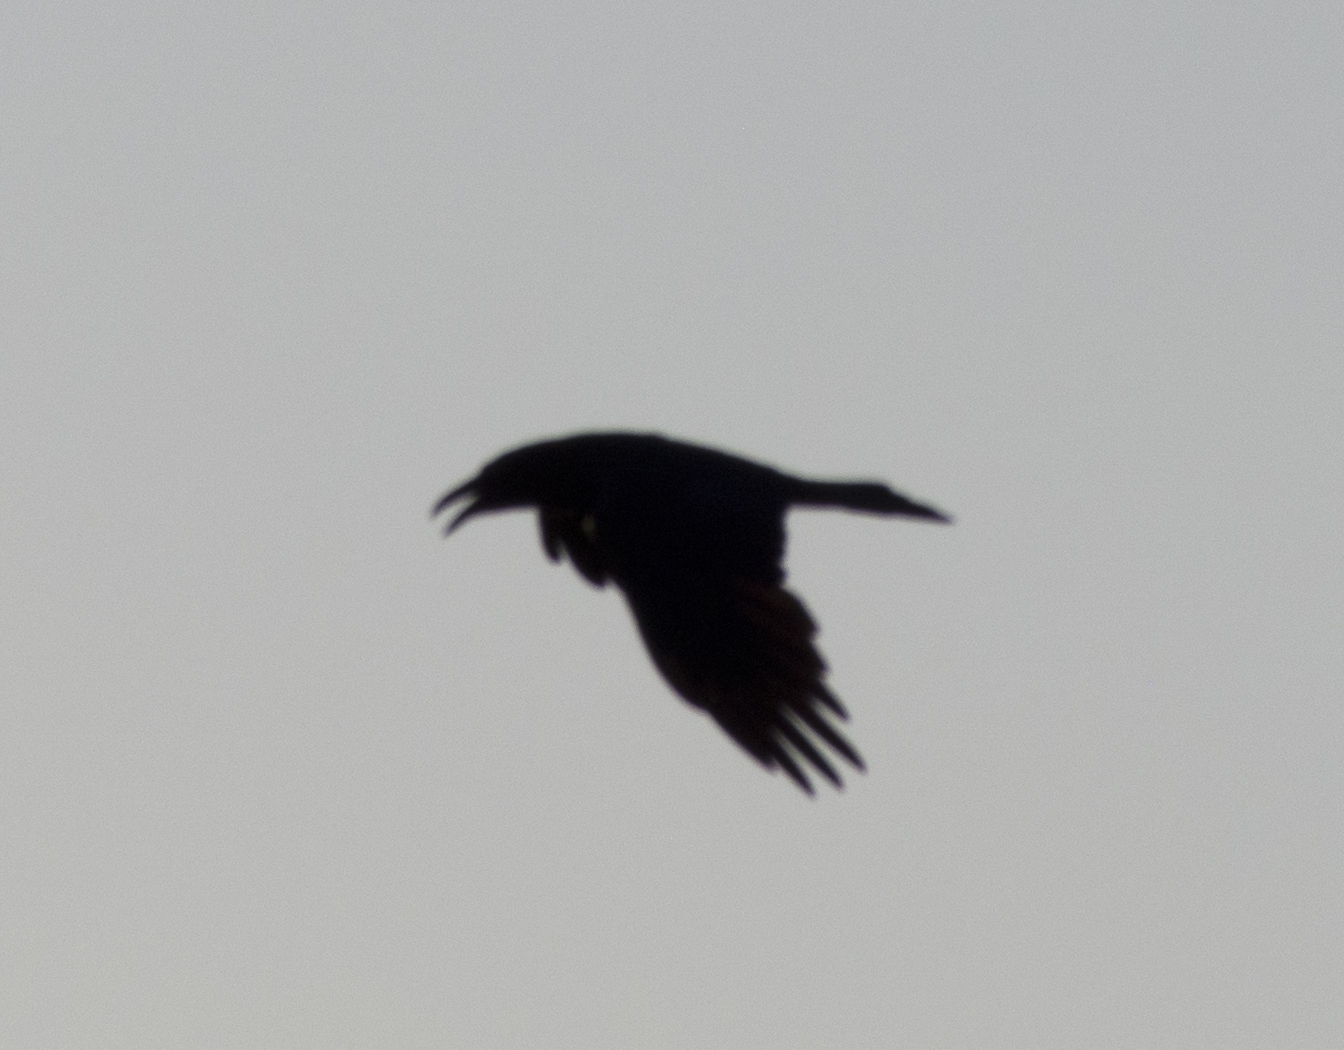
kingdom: Animalia
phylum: Chordata
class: Aves
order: Passeriformes
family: Corvidae
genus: Corvus
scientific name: Corvus
